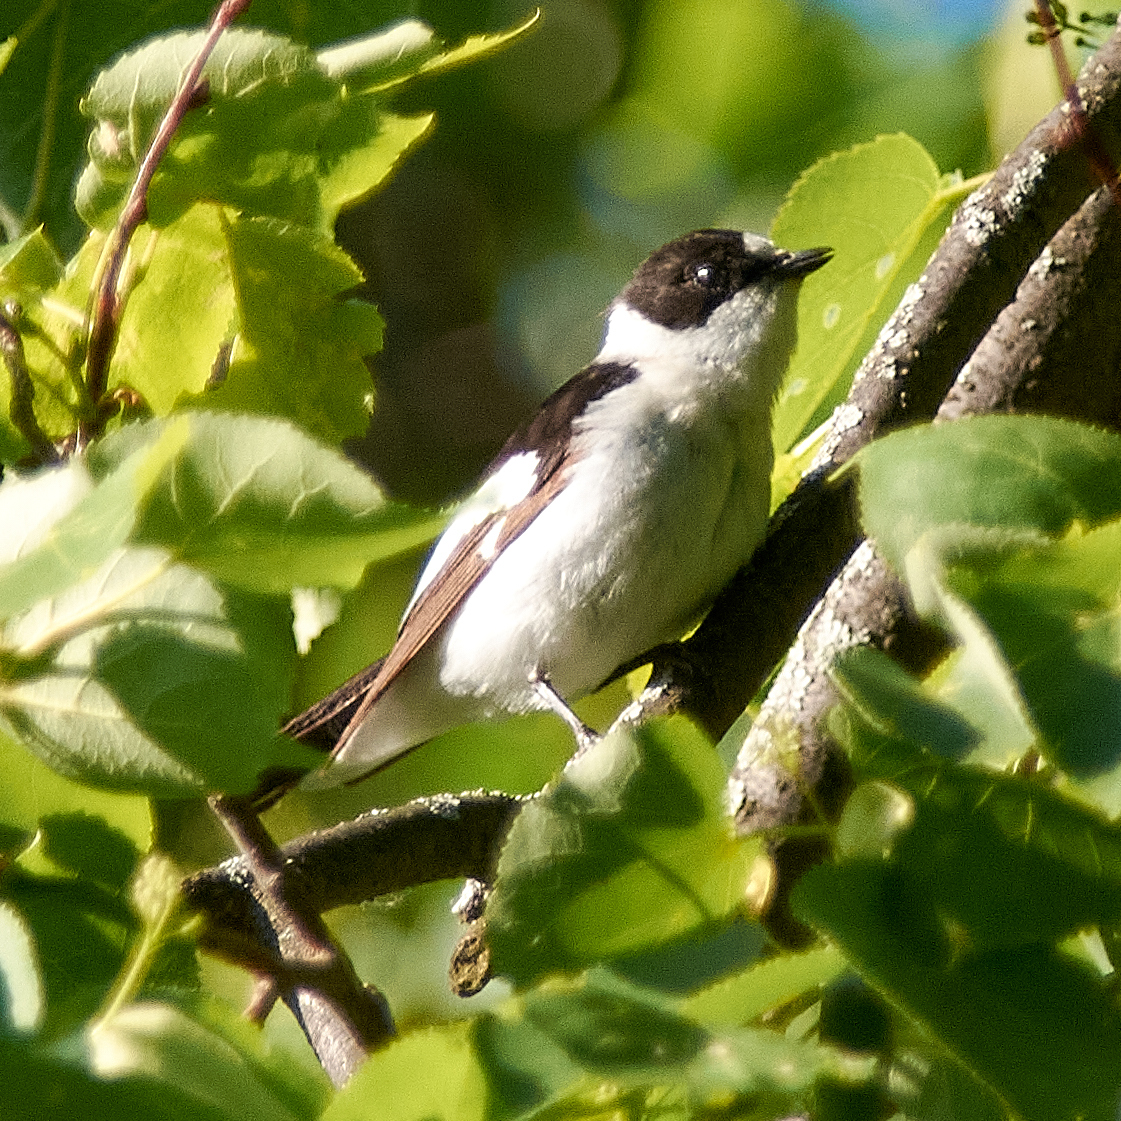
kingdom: Animalia
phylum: Chordata
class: Aves
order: Passeriformes
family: Muscicapidae
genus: Ficedula
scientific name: Ficedula albicollis
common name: Collared flycatcher
